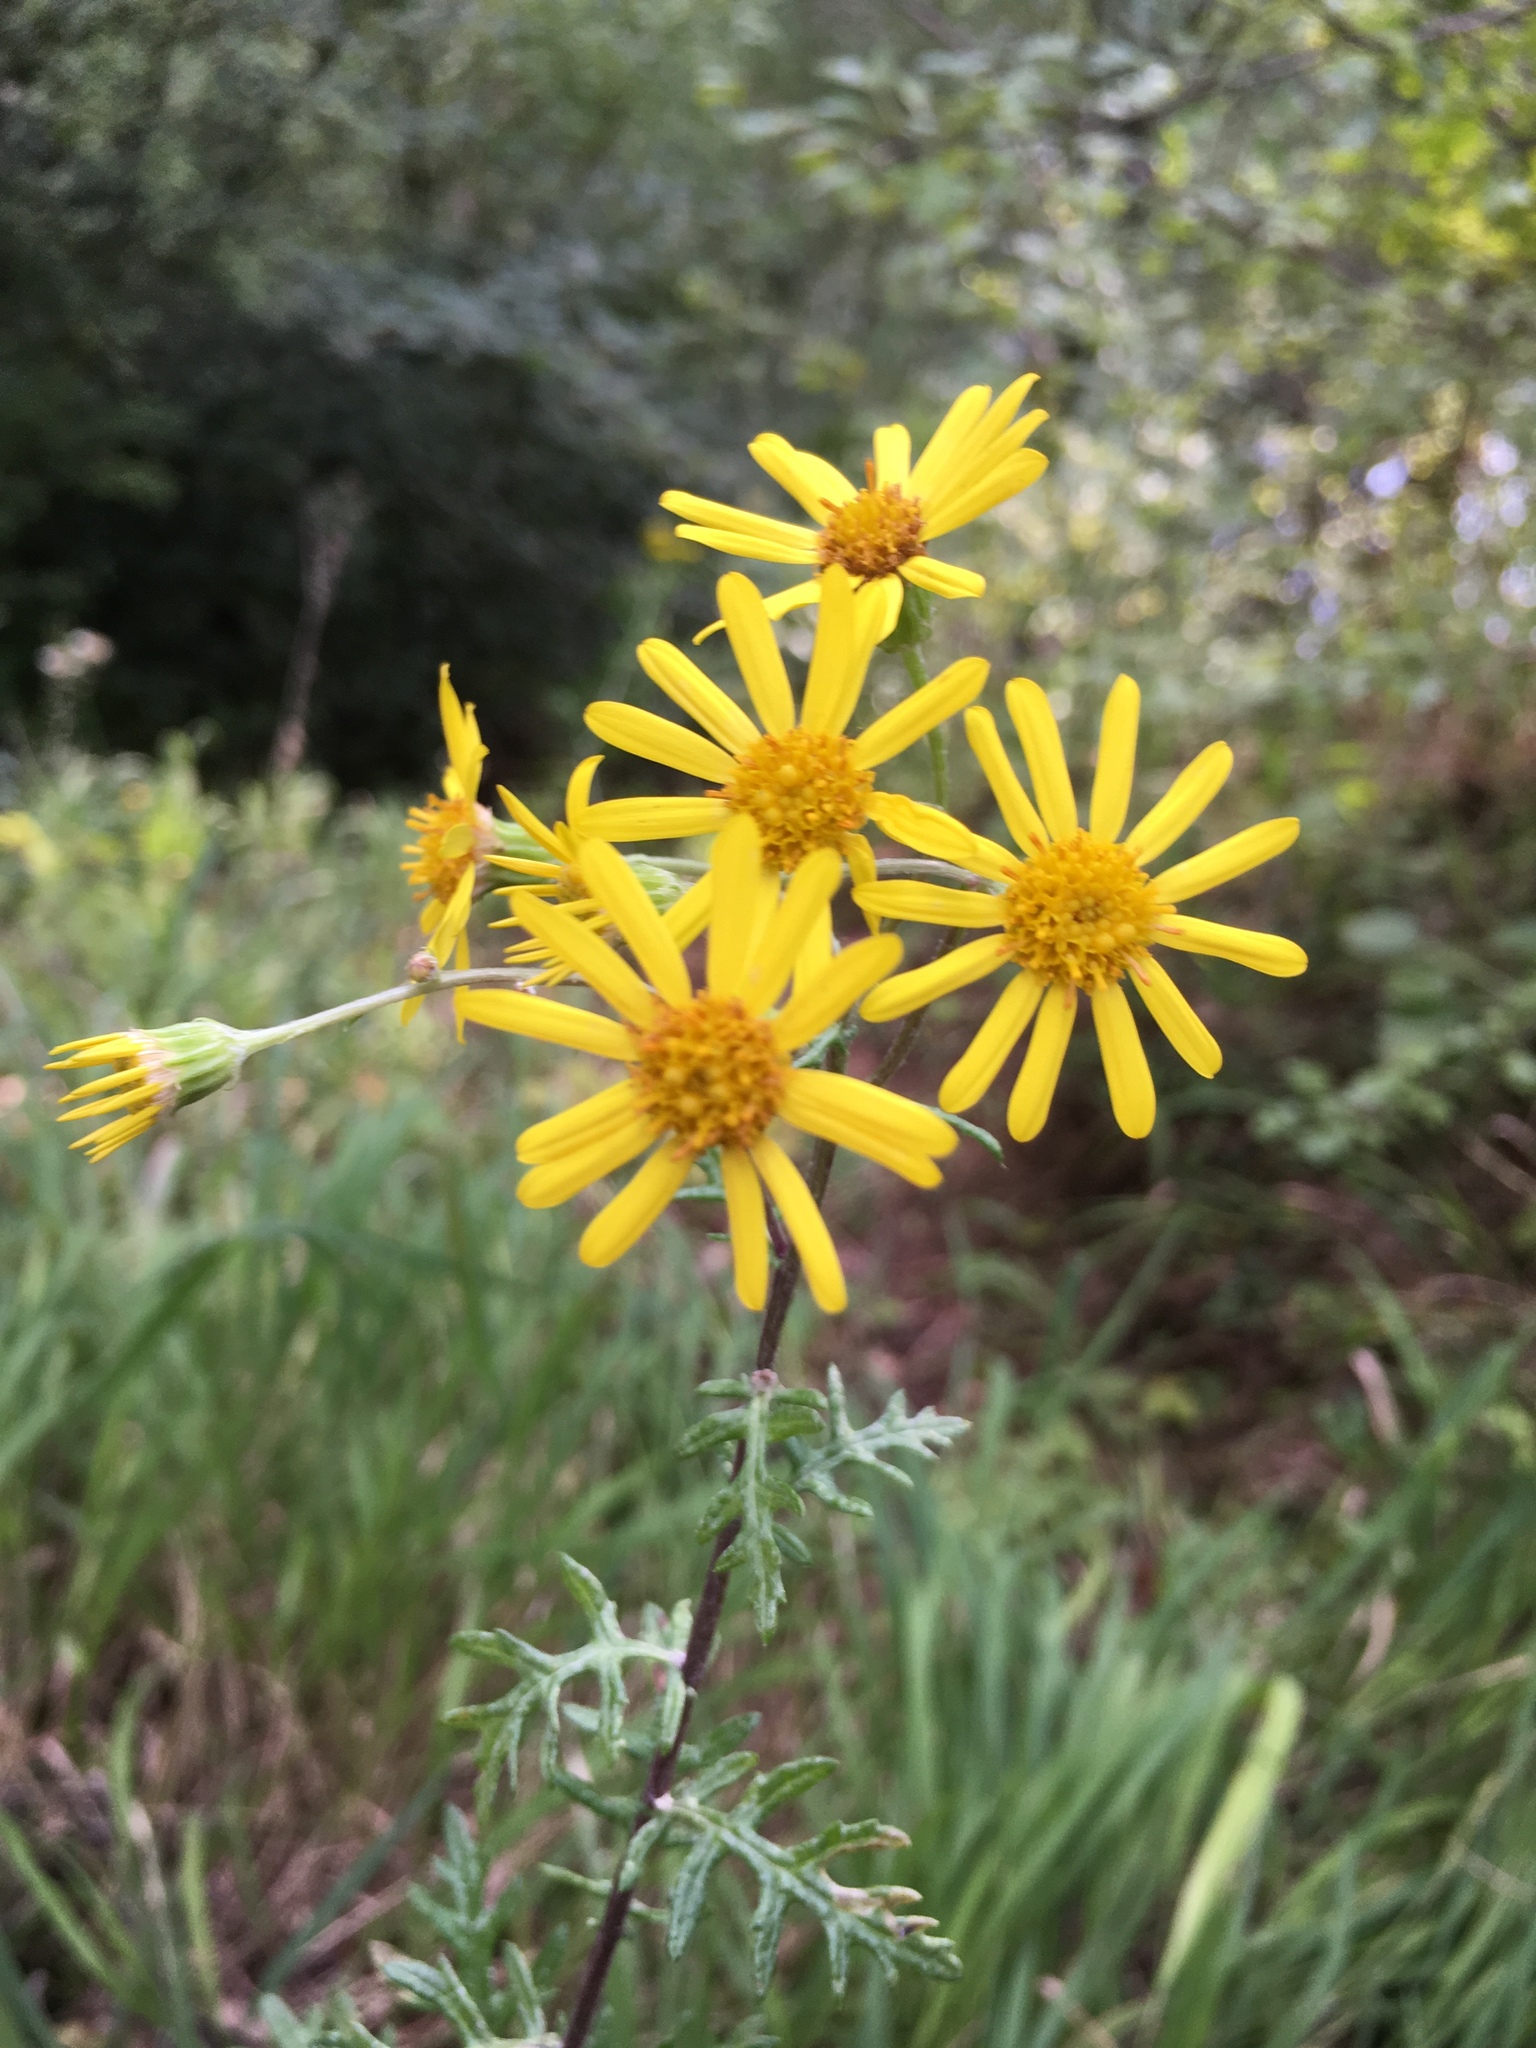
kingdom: Plantae
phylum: Tracheophyta
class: Magnoliopsida
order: Asterales
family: Asteraceae
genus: Jacobaea
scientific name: Jacobaea erucifolia
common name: Hoary ragwort
